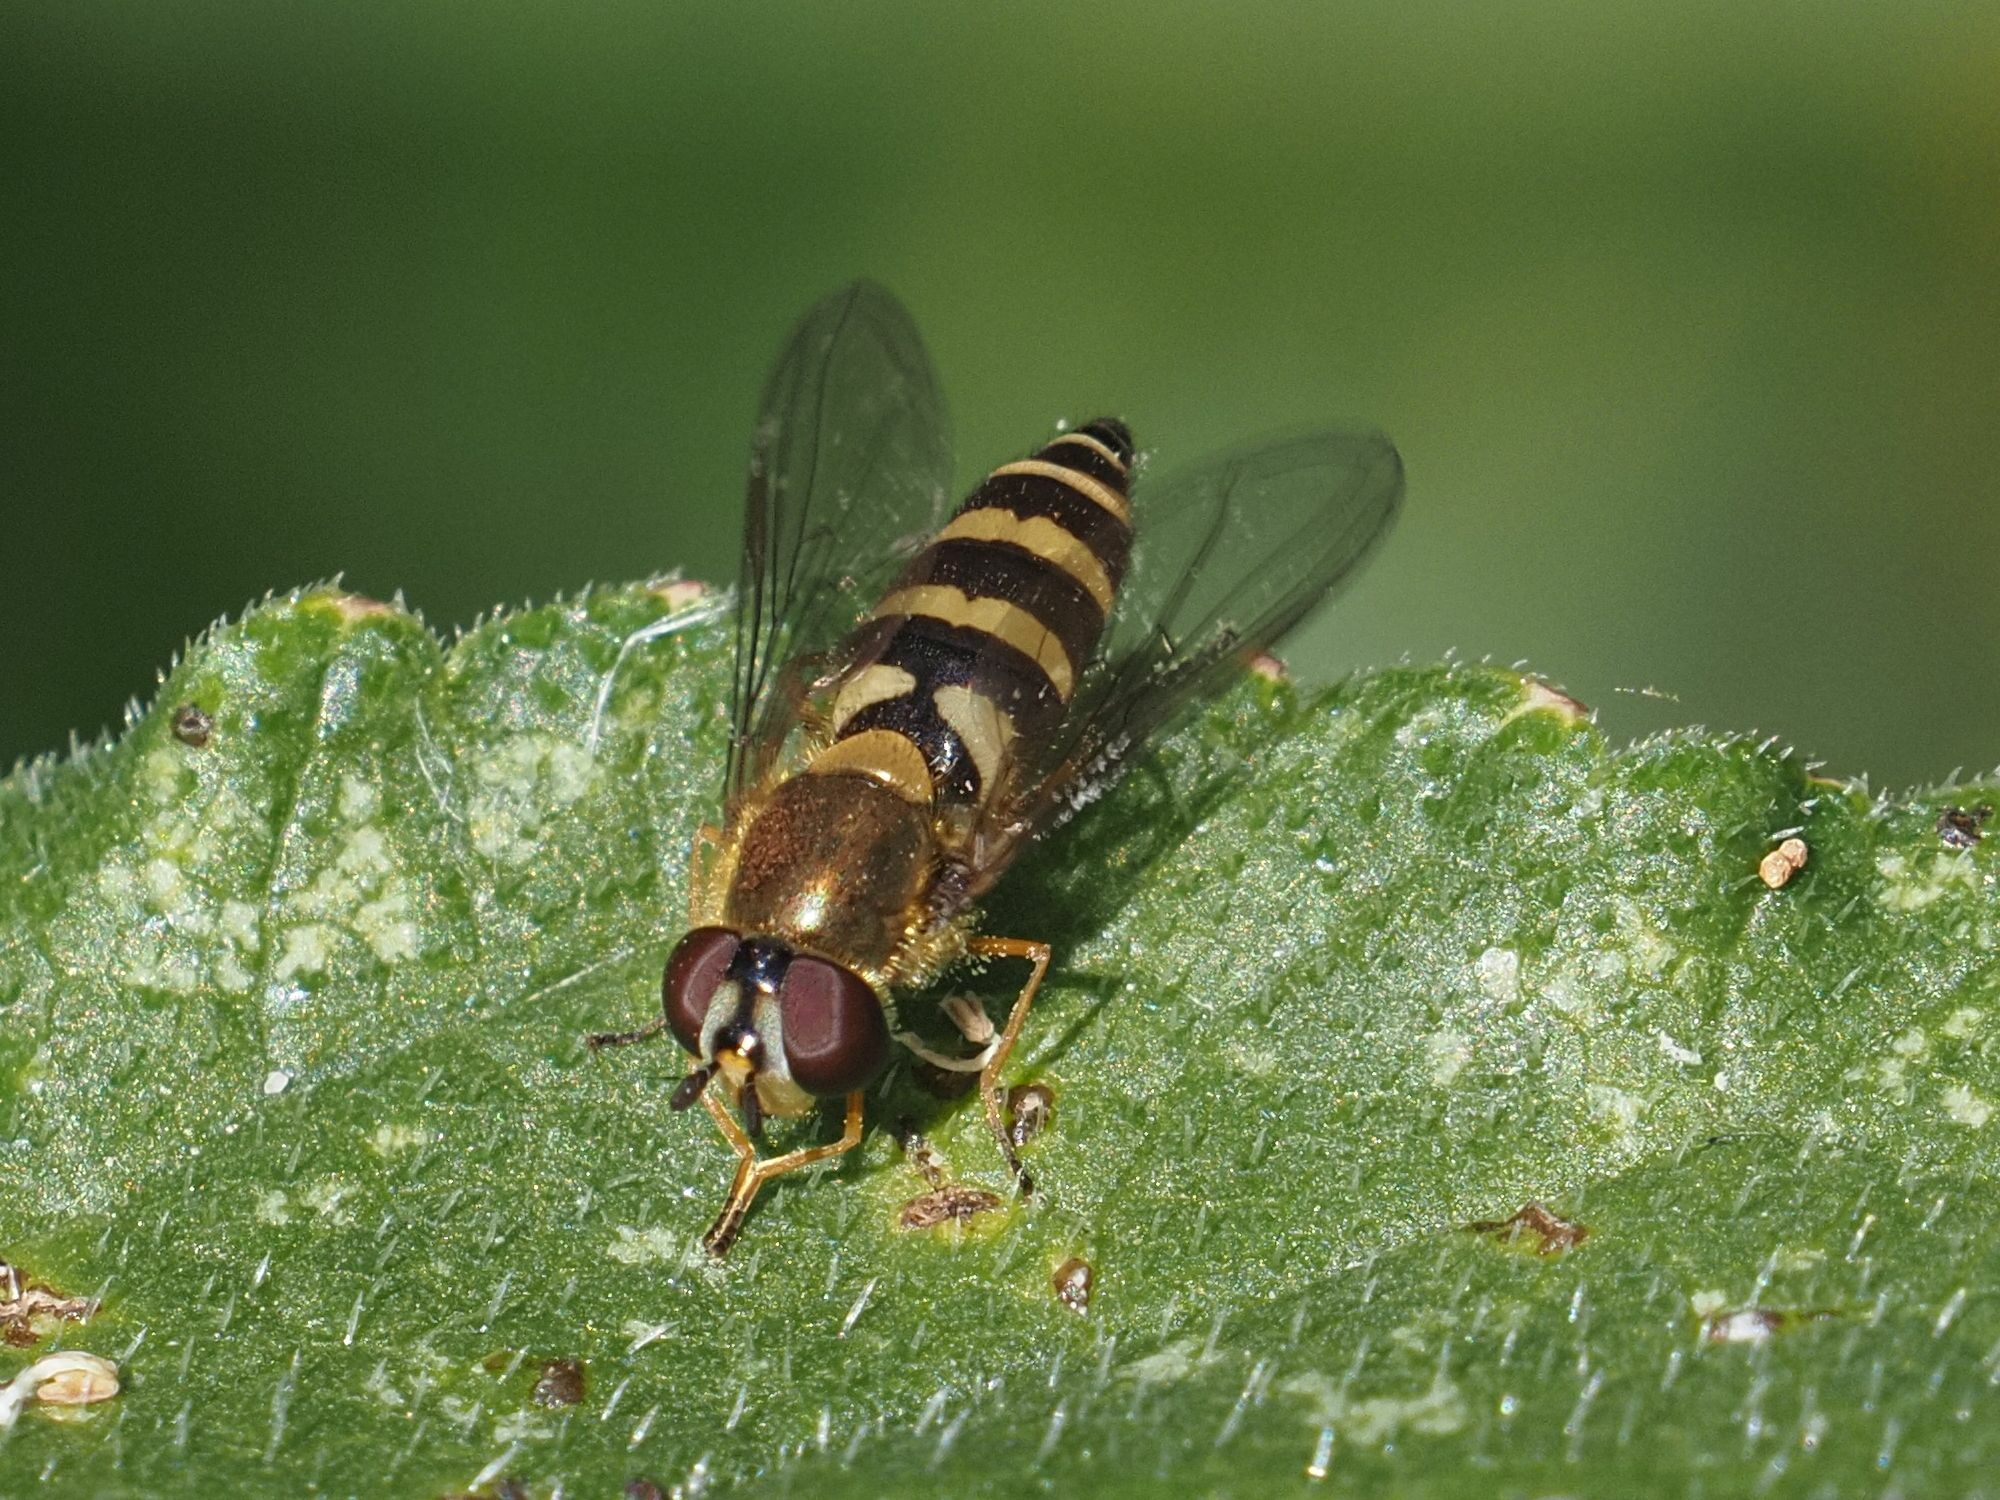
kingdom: Animalia
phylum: Arthropoda
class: Insecta
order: Diptera
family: Syrphidae
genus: Syrphus
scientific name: Syrphus
